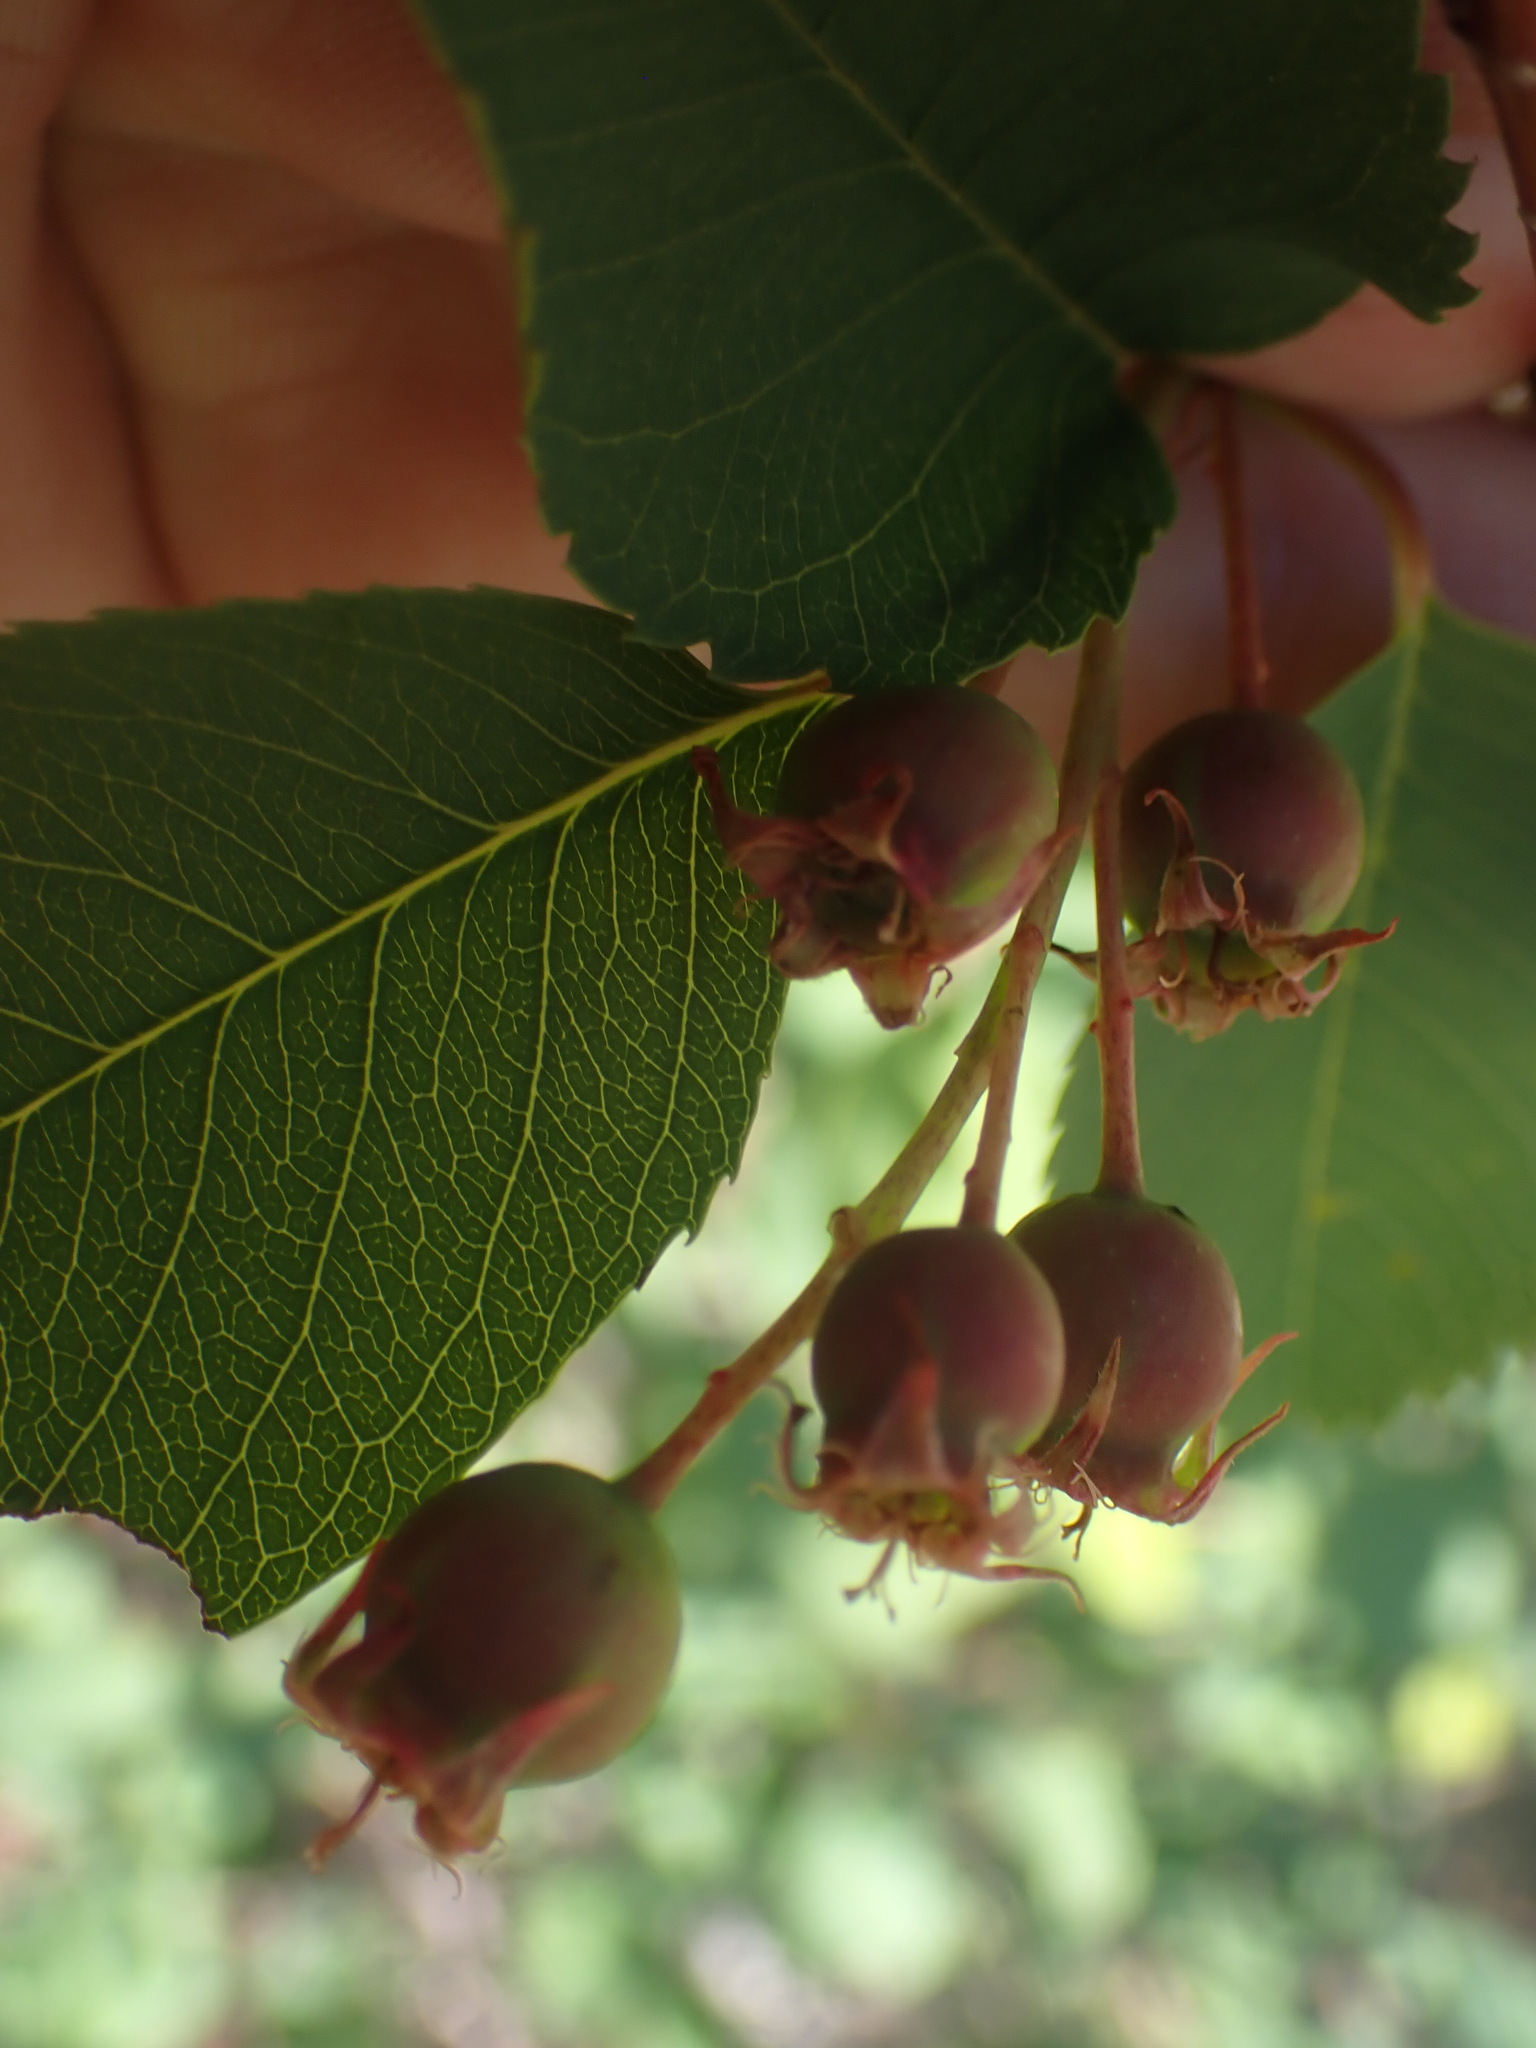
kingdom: Plantae
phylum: Tracheophyta
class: Magnoliopsida
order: Rosales
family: Rosaceae
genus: Amelanchier
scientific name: Amelanchier alnifolia
